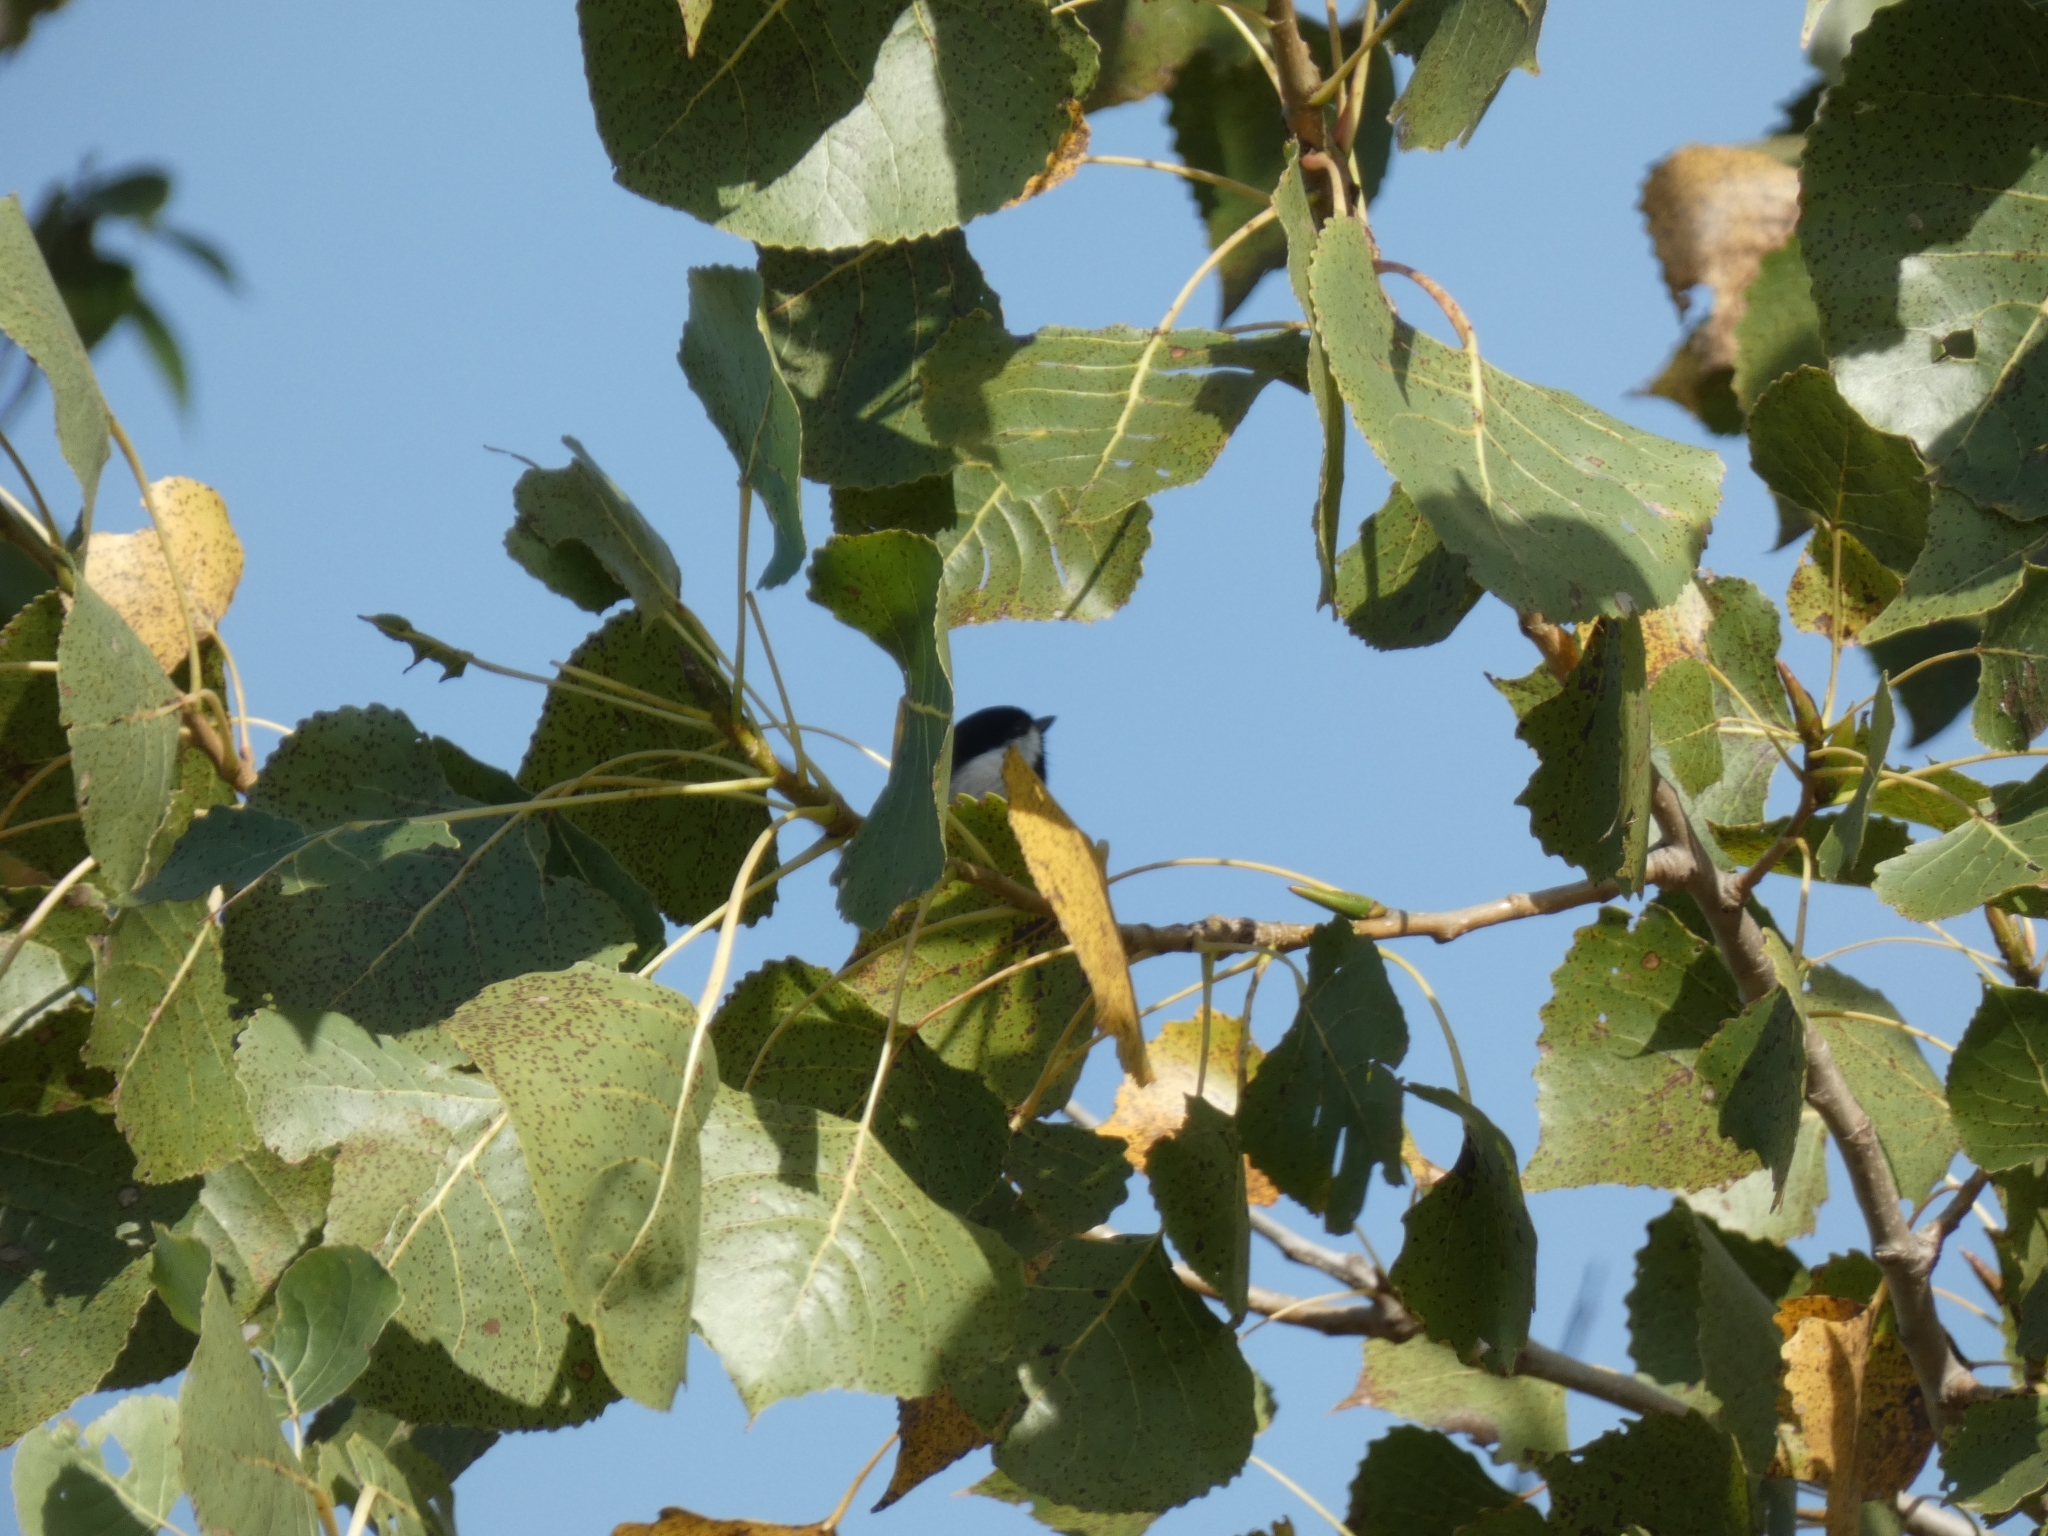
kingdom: Animalia
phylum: Chordata
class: Aves
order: Passeriformes
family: Paridae
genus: Poecile
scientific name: Poecile carolinensis
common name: Carolina chickadee
